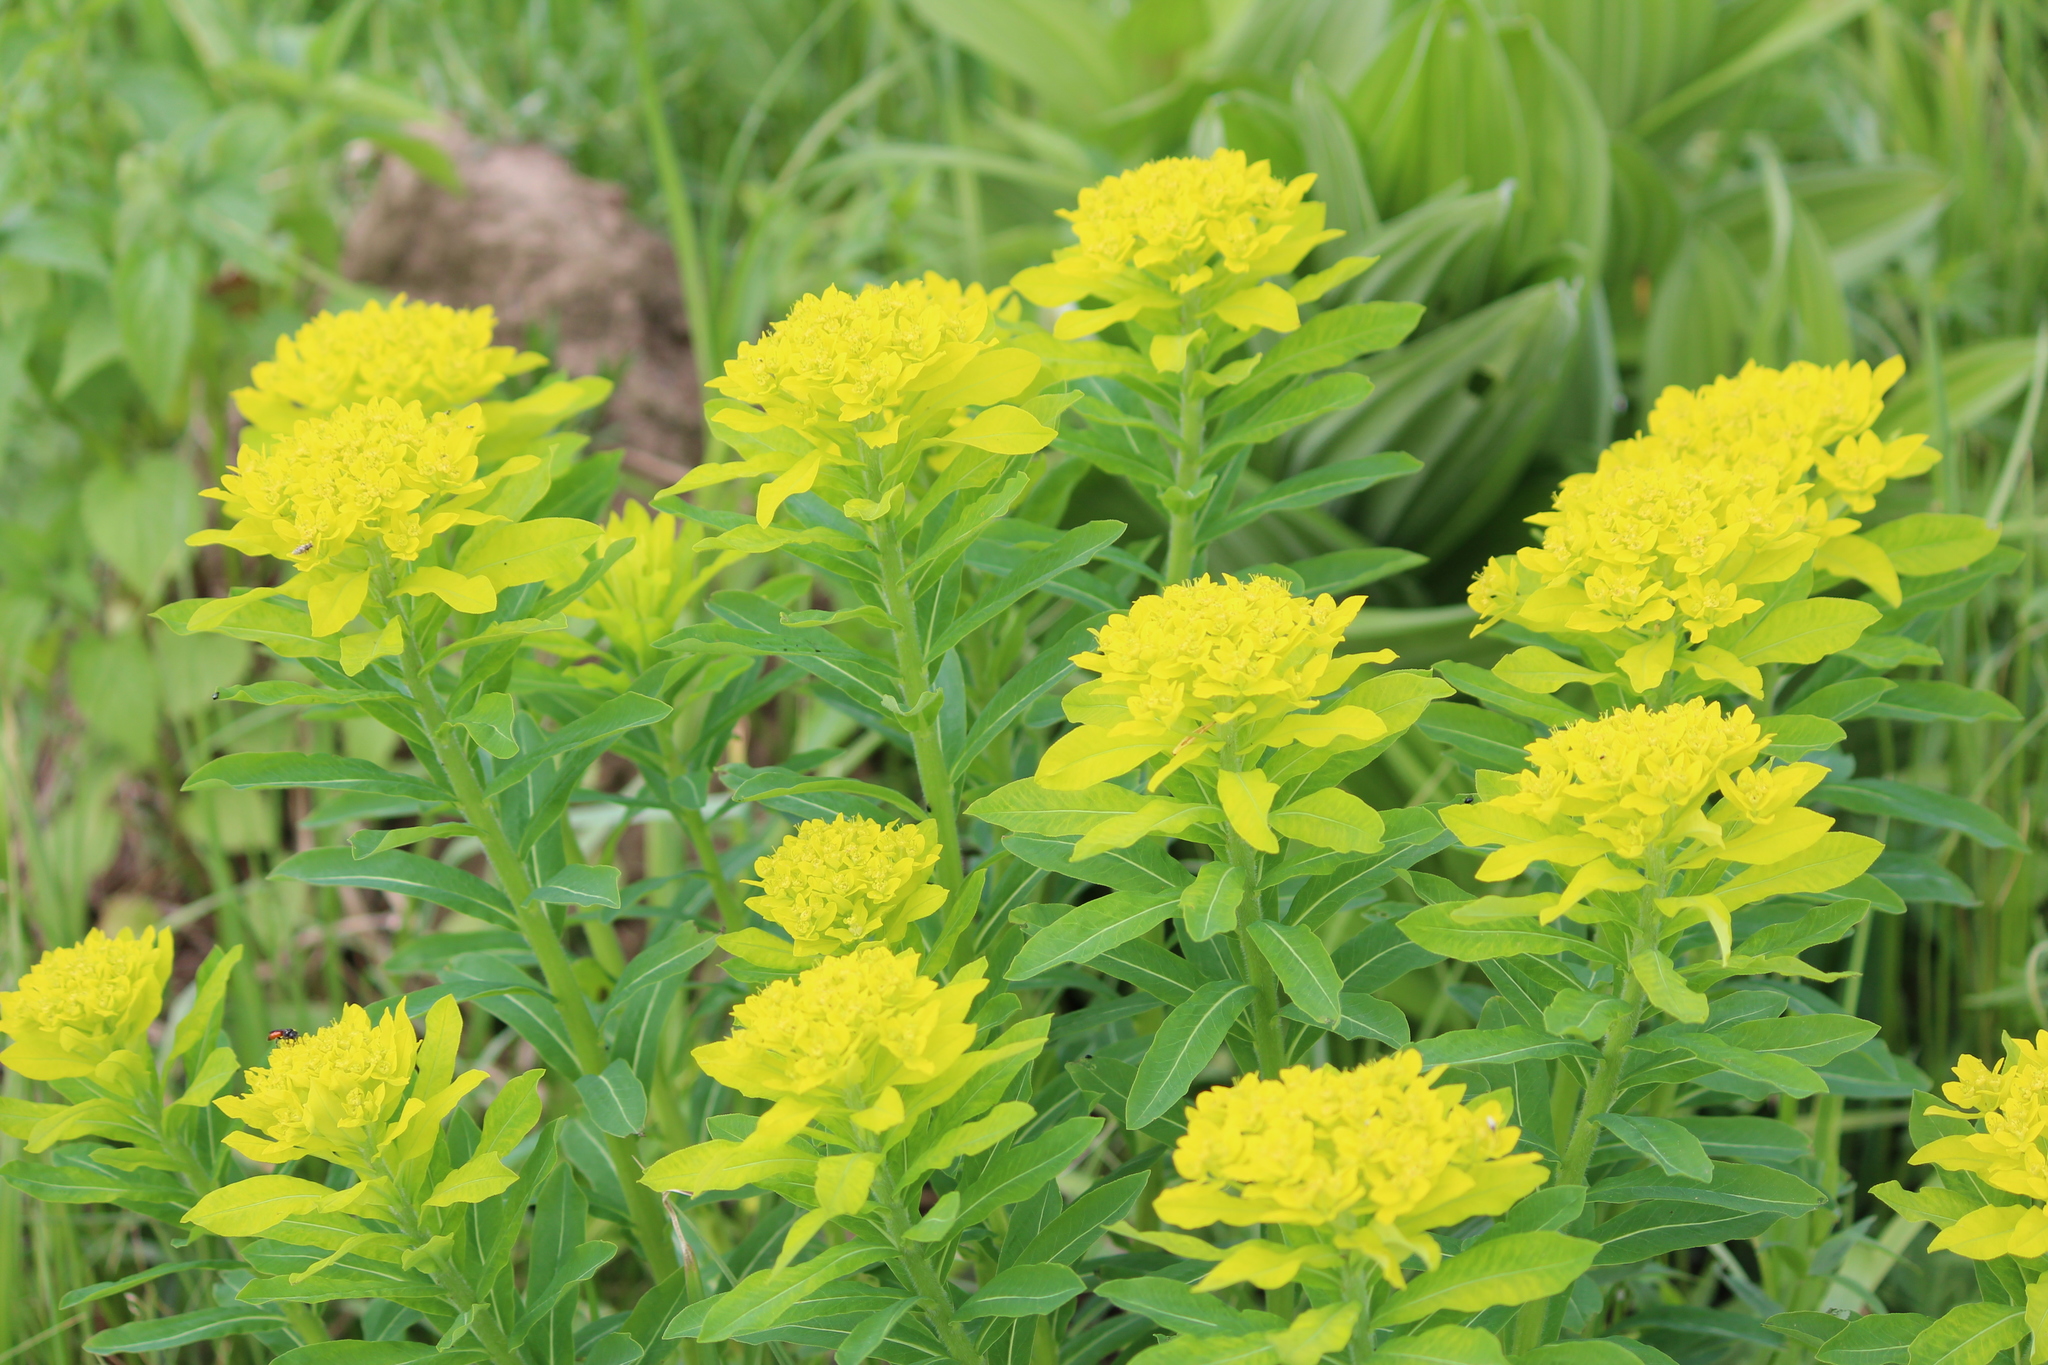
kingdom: Plantae
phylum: Tracheophyta
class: Magnoliopsida
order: Malpighiales
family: Euphorbiaceae
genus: Euphorbia
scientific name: Euphorbia pilosa
